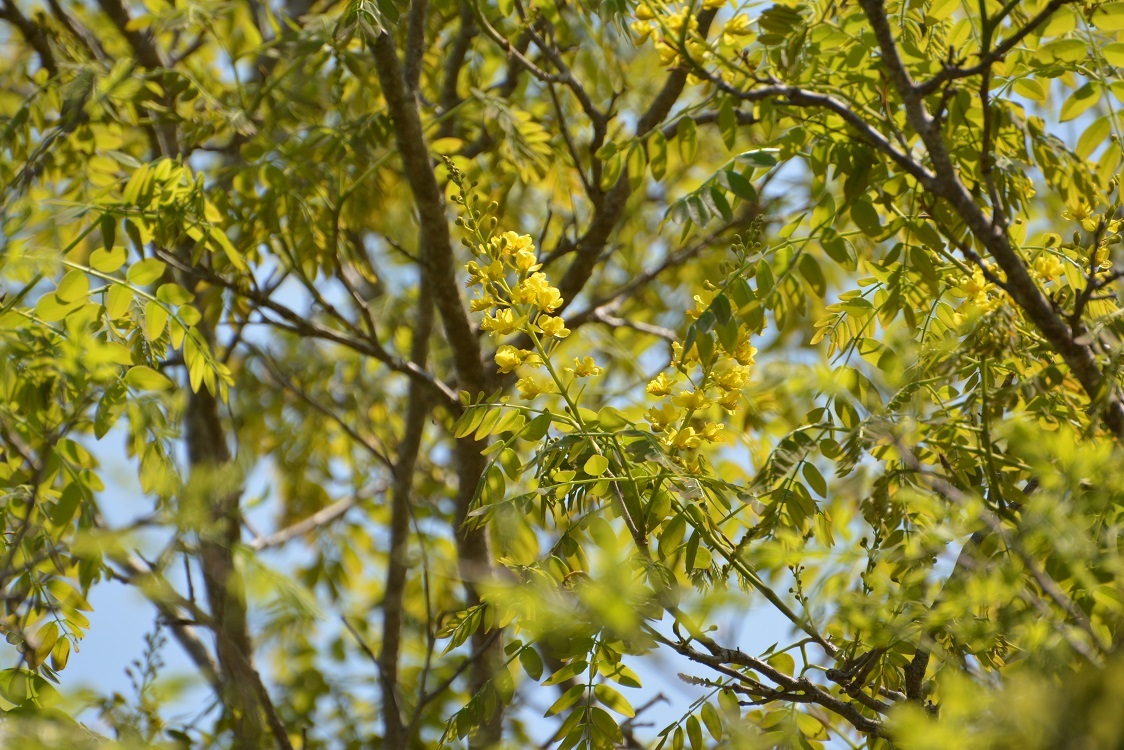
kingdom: Plantae
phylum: Tracheophyta
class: Magnoliopsida
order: Fabales
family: Fabaceae
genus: Coulteria
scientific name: Coulteria velutina
